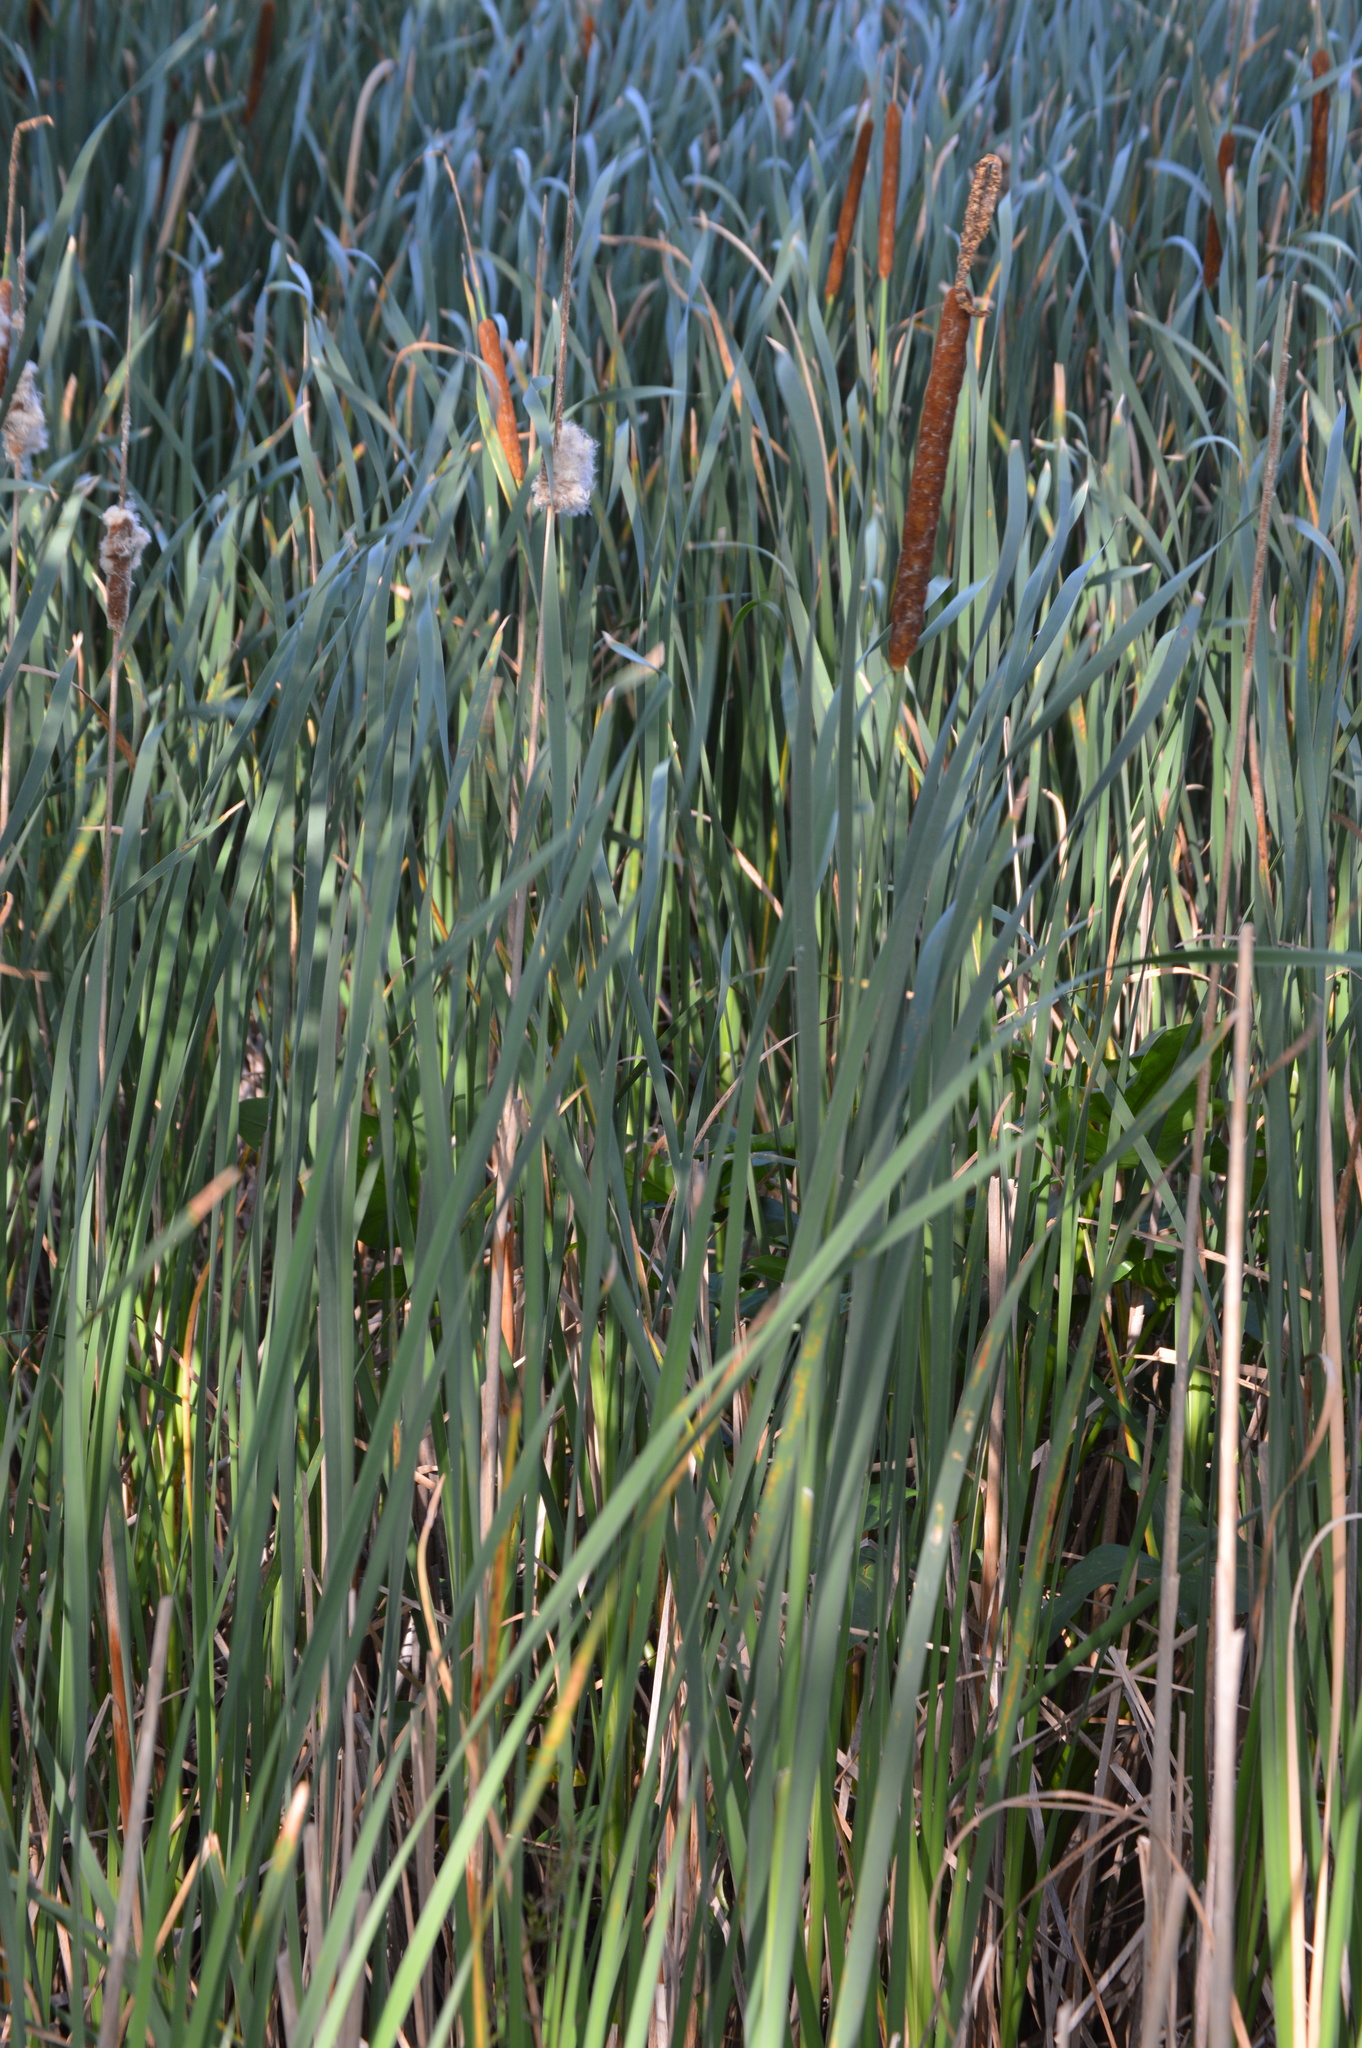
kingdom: Plantae
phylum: Tracheophyta
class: Liliopsida
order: Poales
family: Typhaceae
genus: Typha
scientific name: Typha
